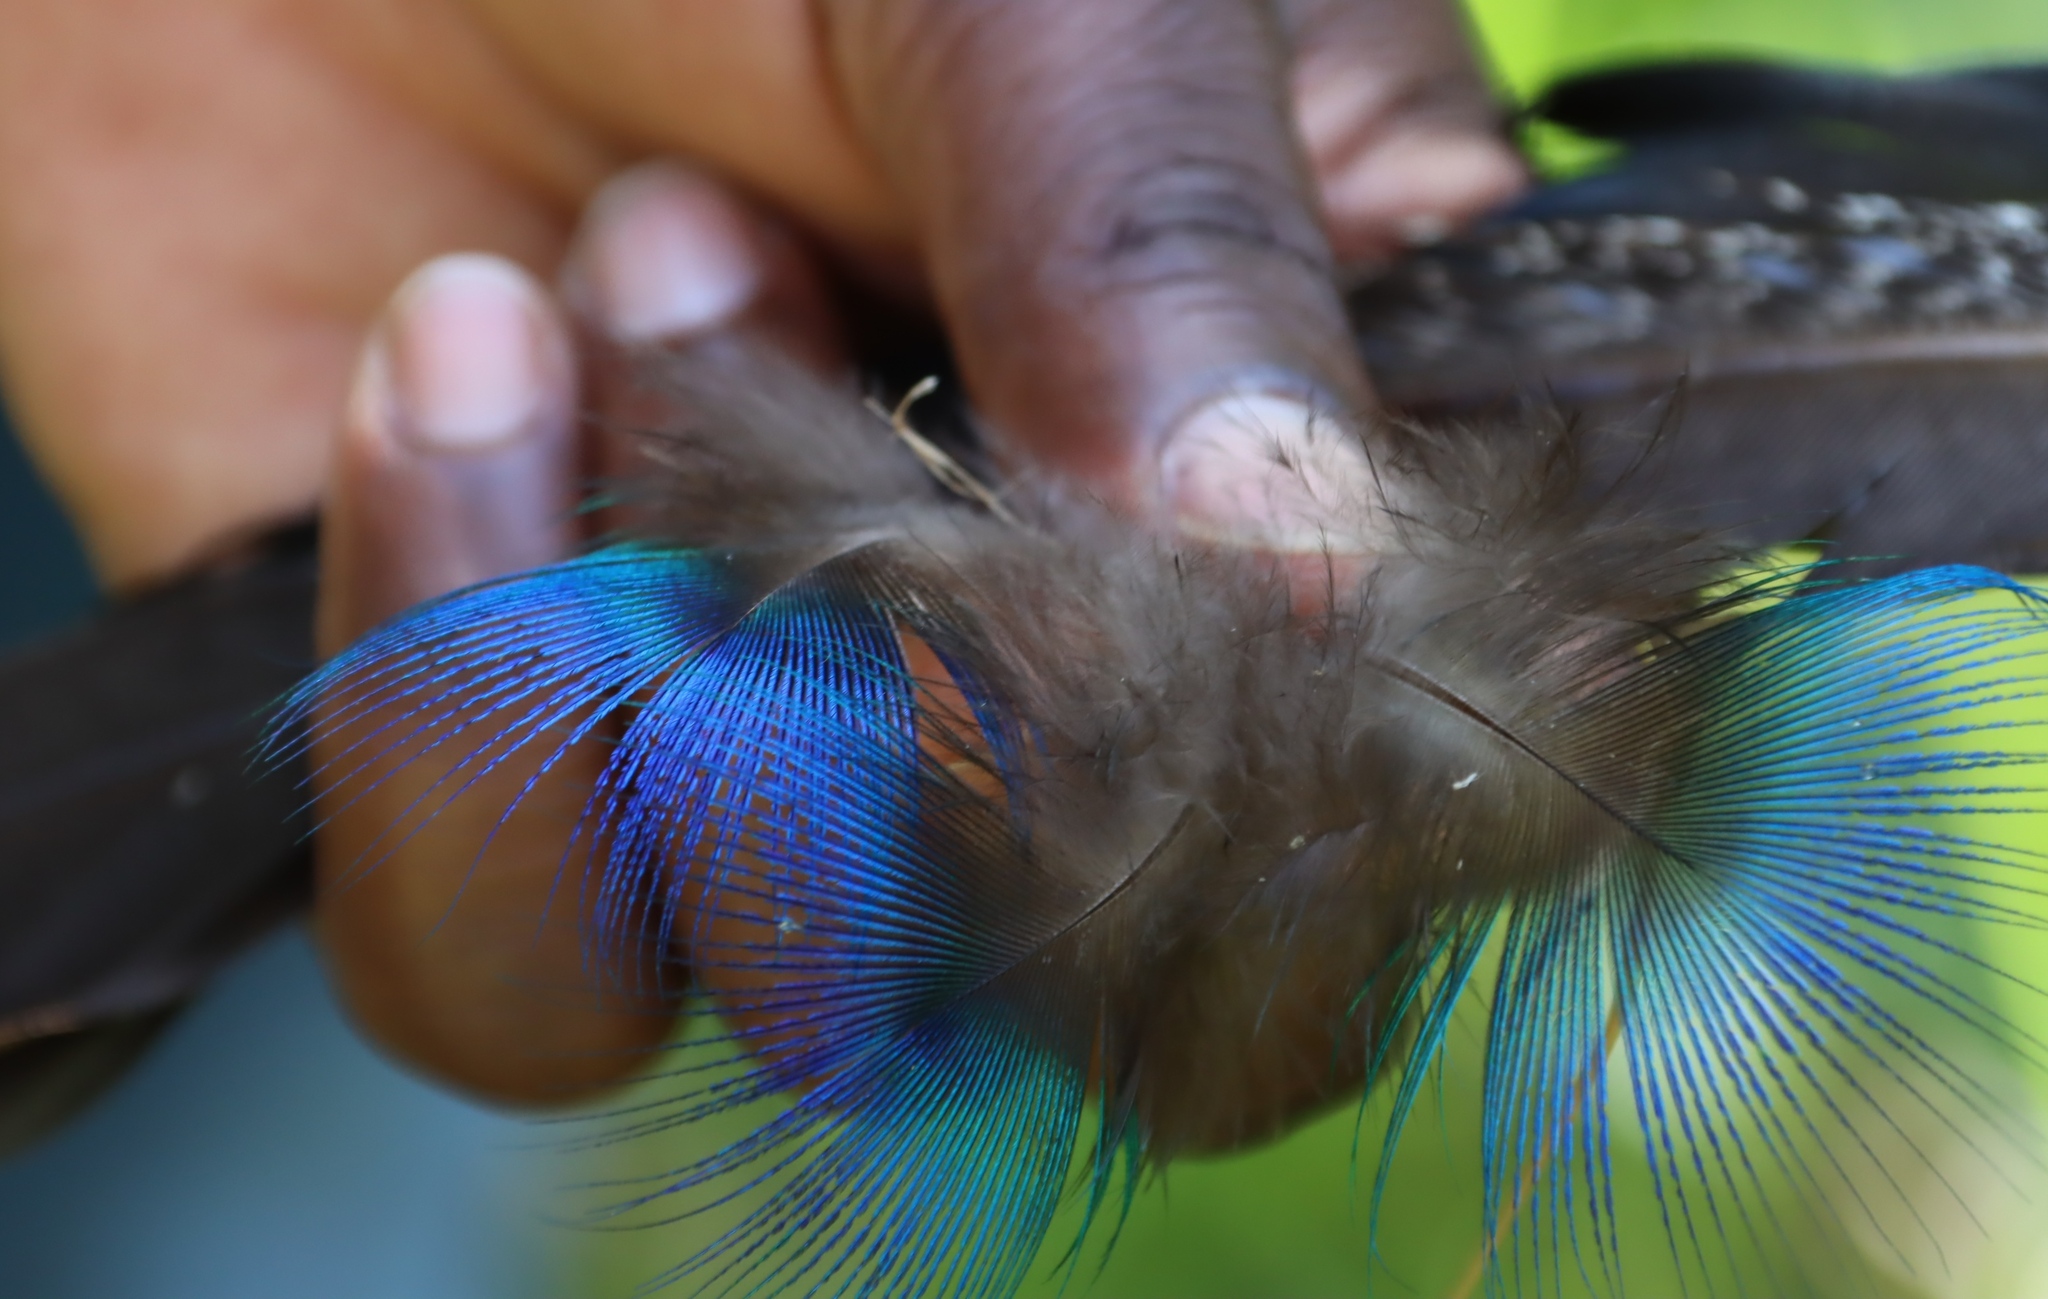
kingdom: Animalia
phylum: Chordata
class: Aves
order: Galliformes
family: Phasianidae
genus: Pavo
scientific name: Pavo cristatus
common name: Indian peafowl
